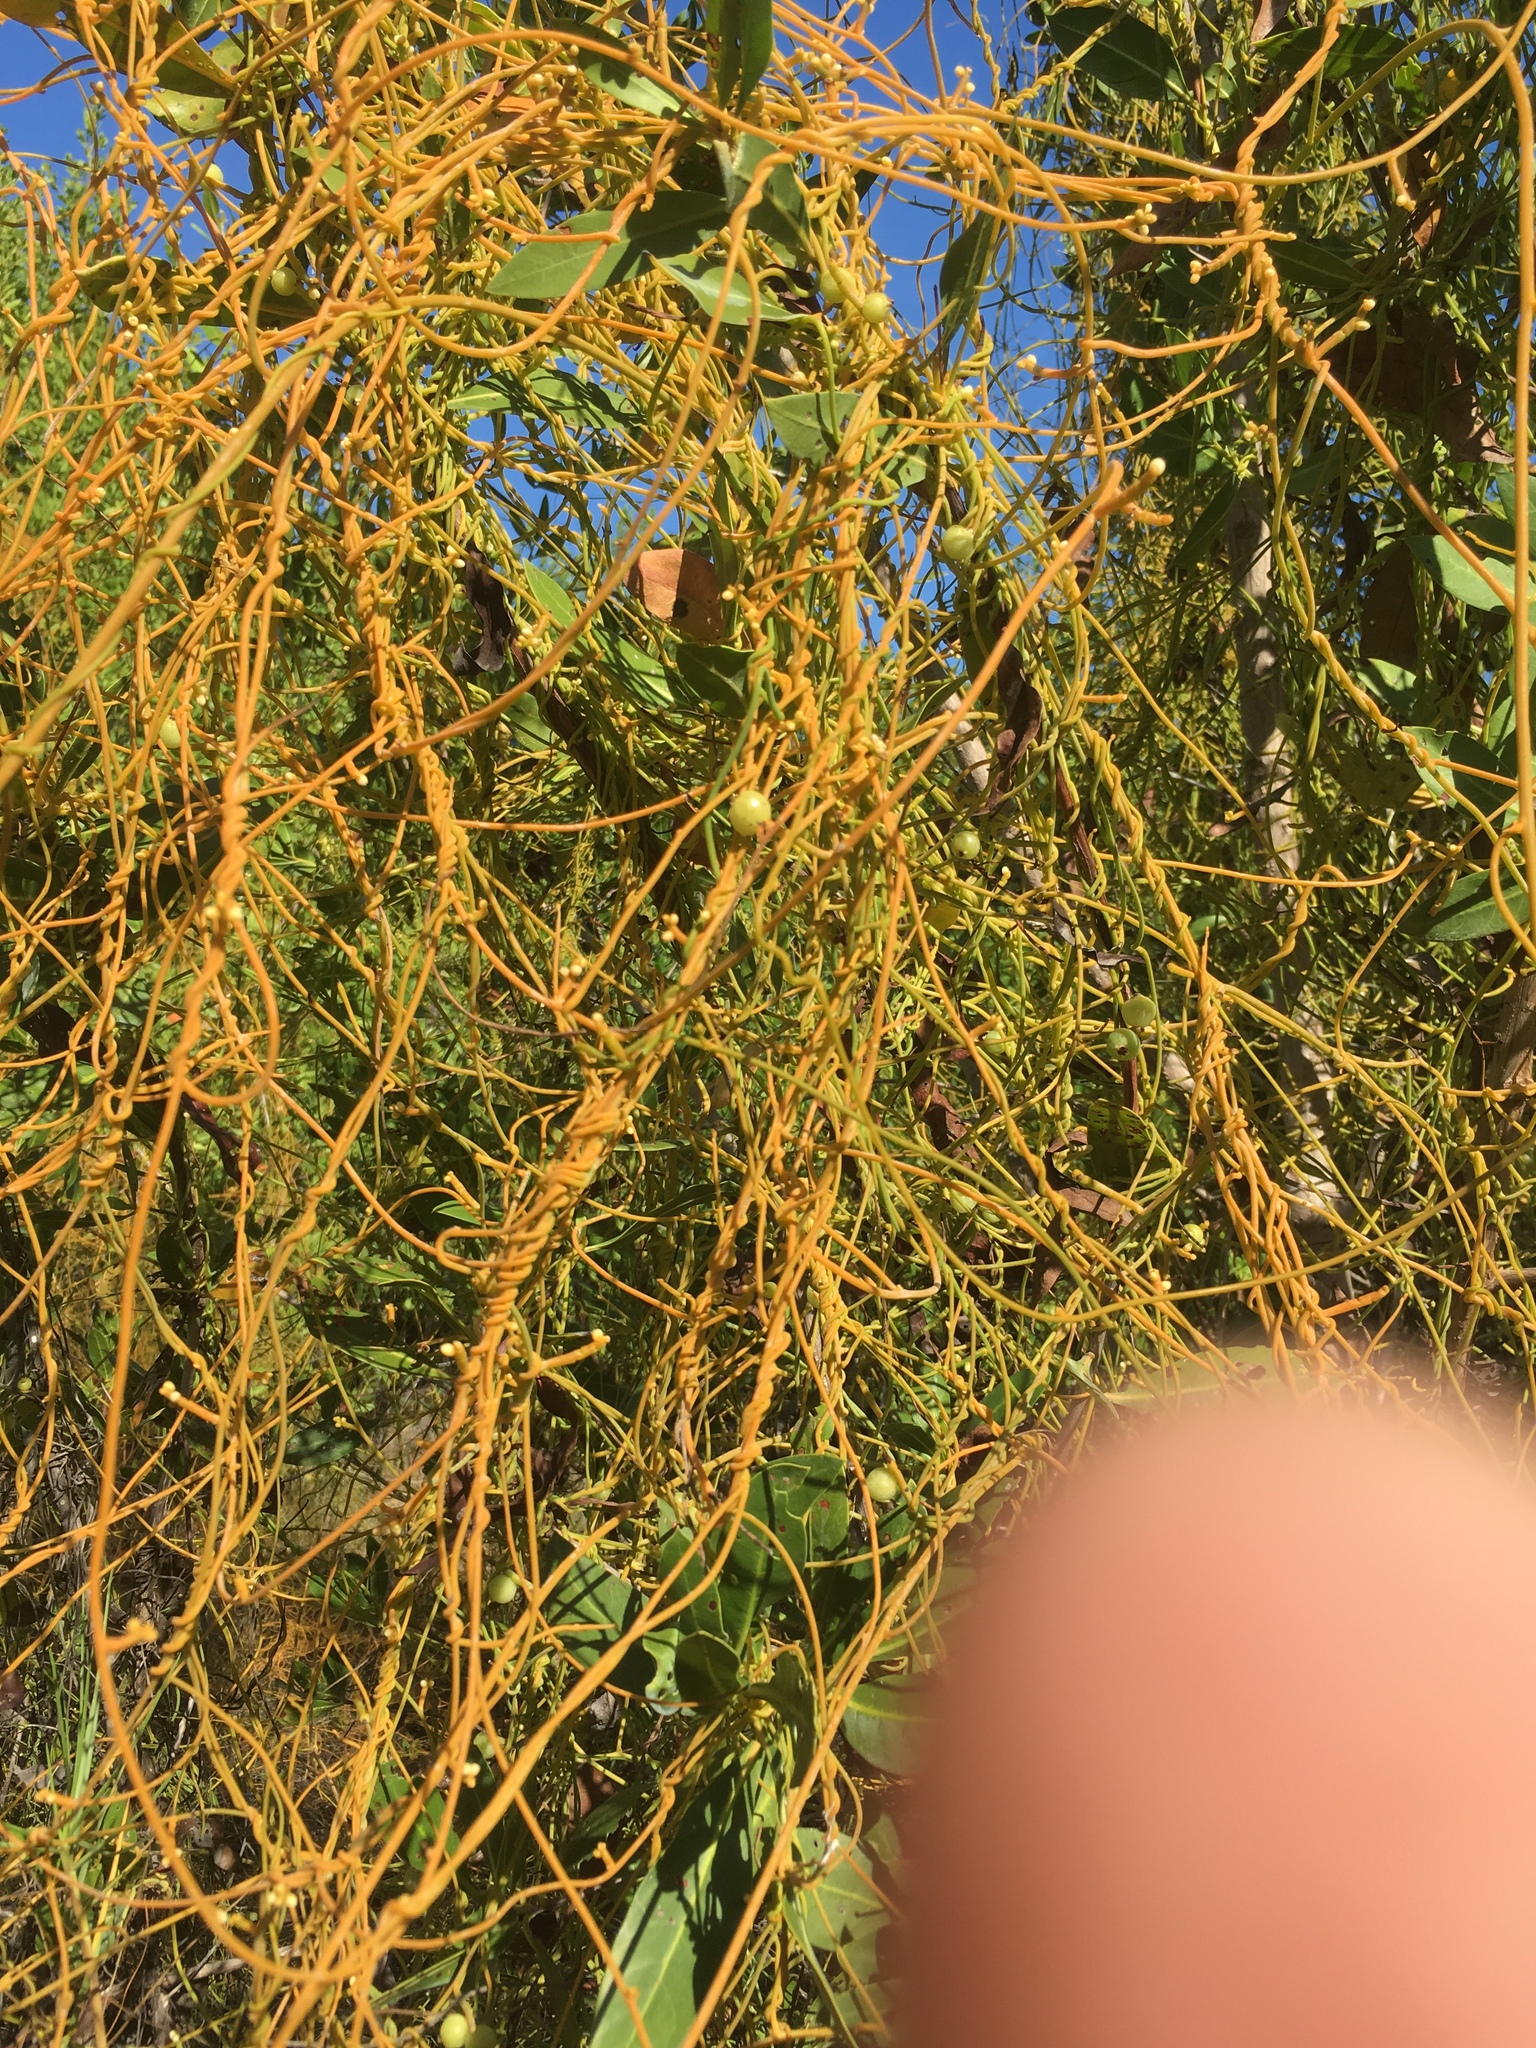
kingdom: Plantae
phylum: Tracheophyta
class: Magnoliopsida
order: Laurales
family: Lauraceae
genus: Cassytha
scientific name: Cassytha filiformis
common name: Dodder-laurel
